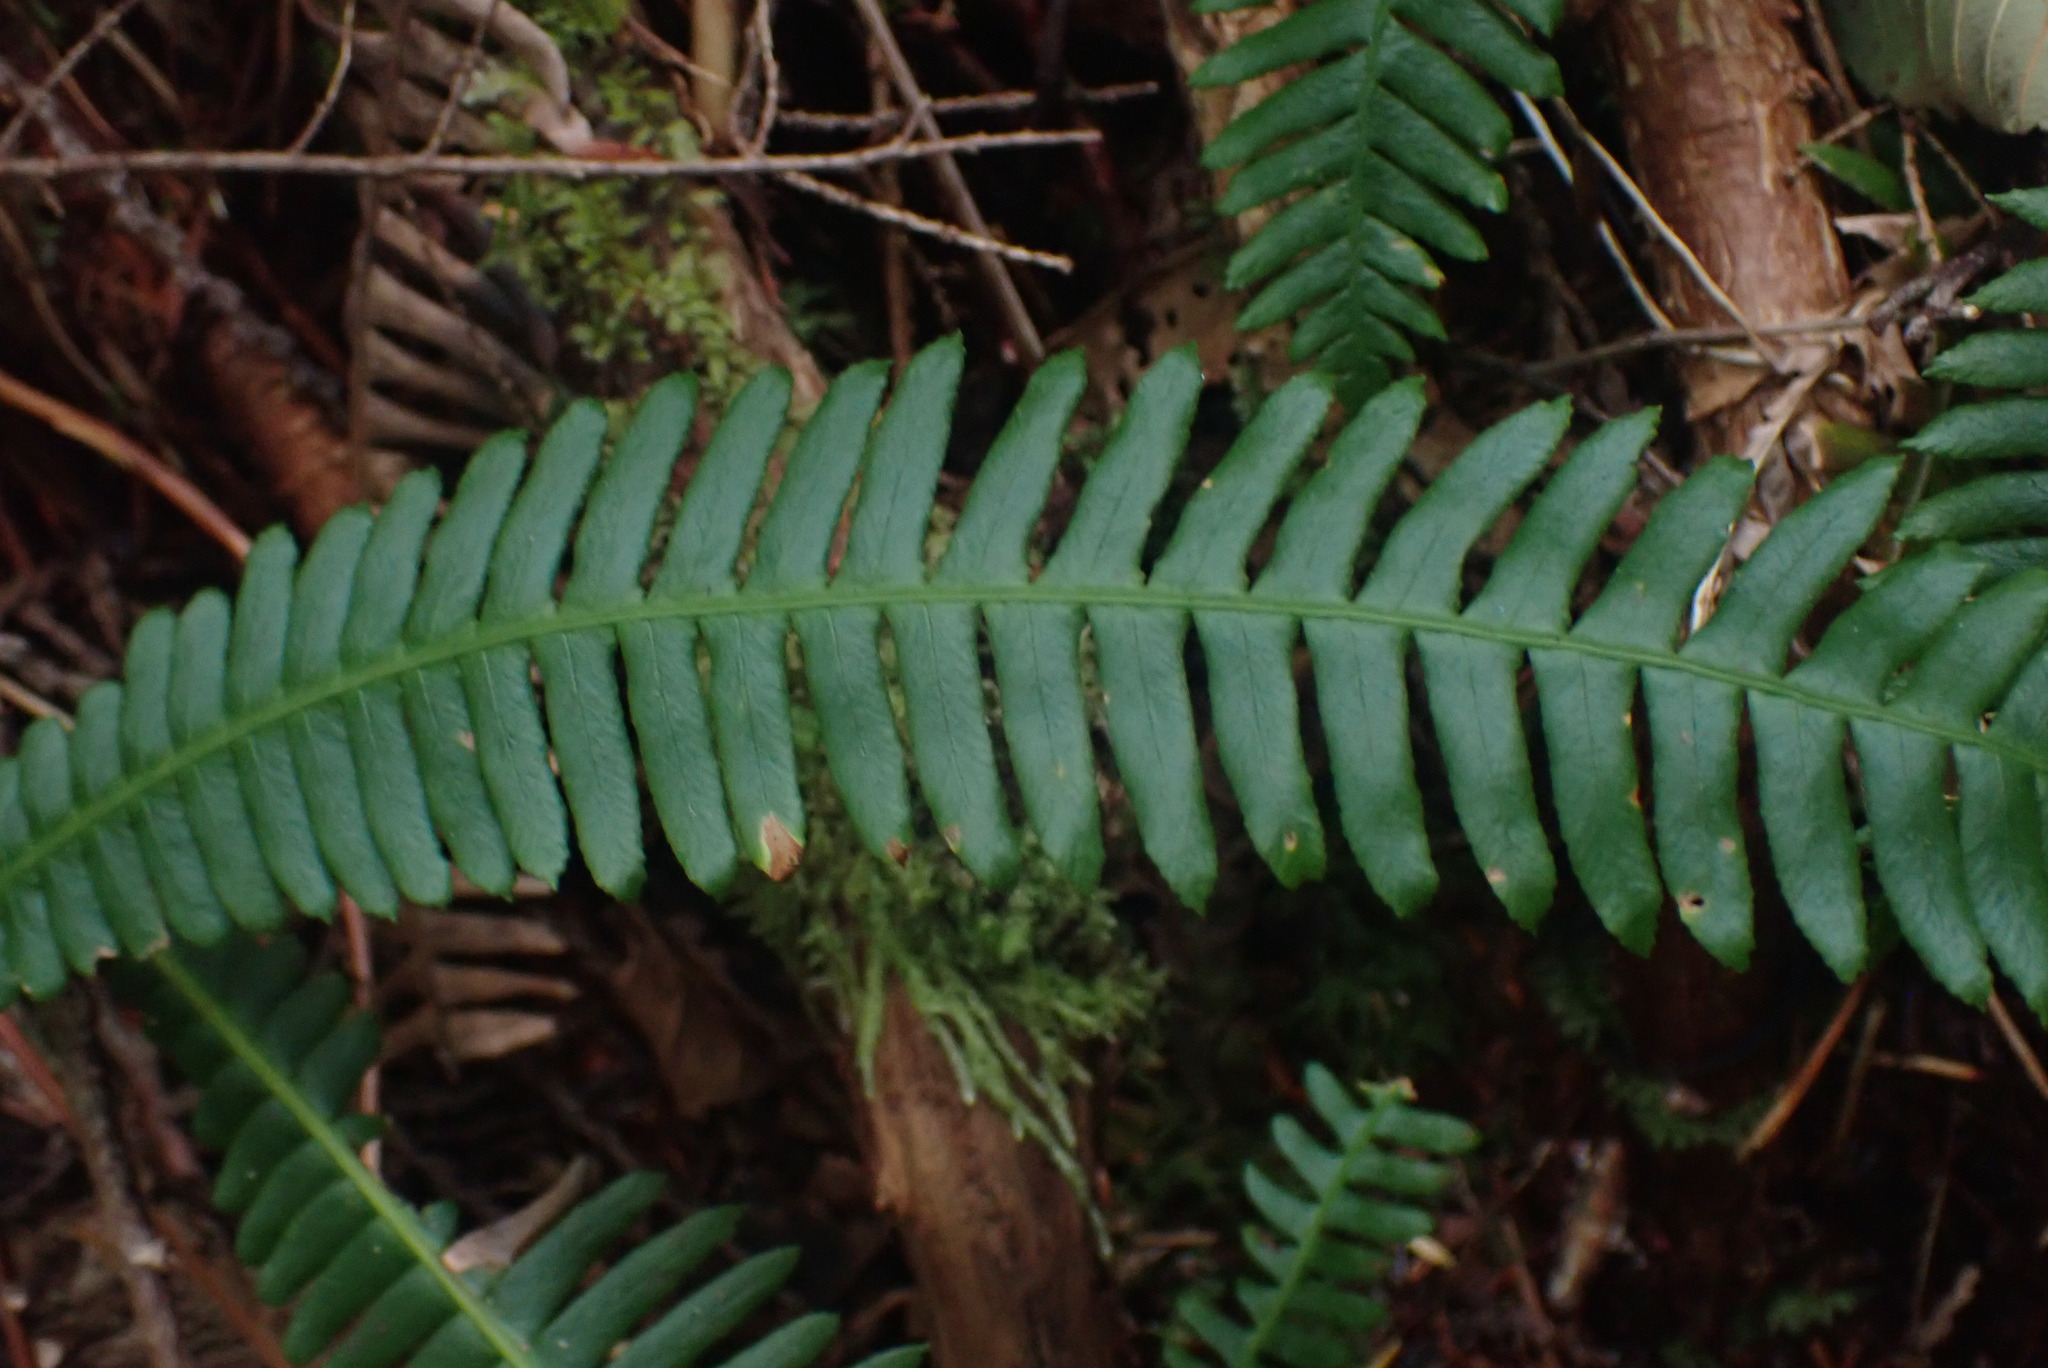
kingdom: Plantae
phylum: Tracheophyta
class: Polypodiopsida
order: Polypodiales
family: Blechnaceae
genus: Struthiopteris
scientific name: Struthiopteris spicant
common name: Deer fern
